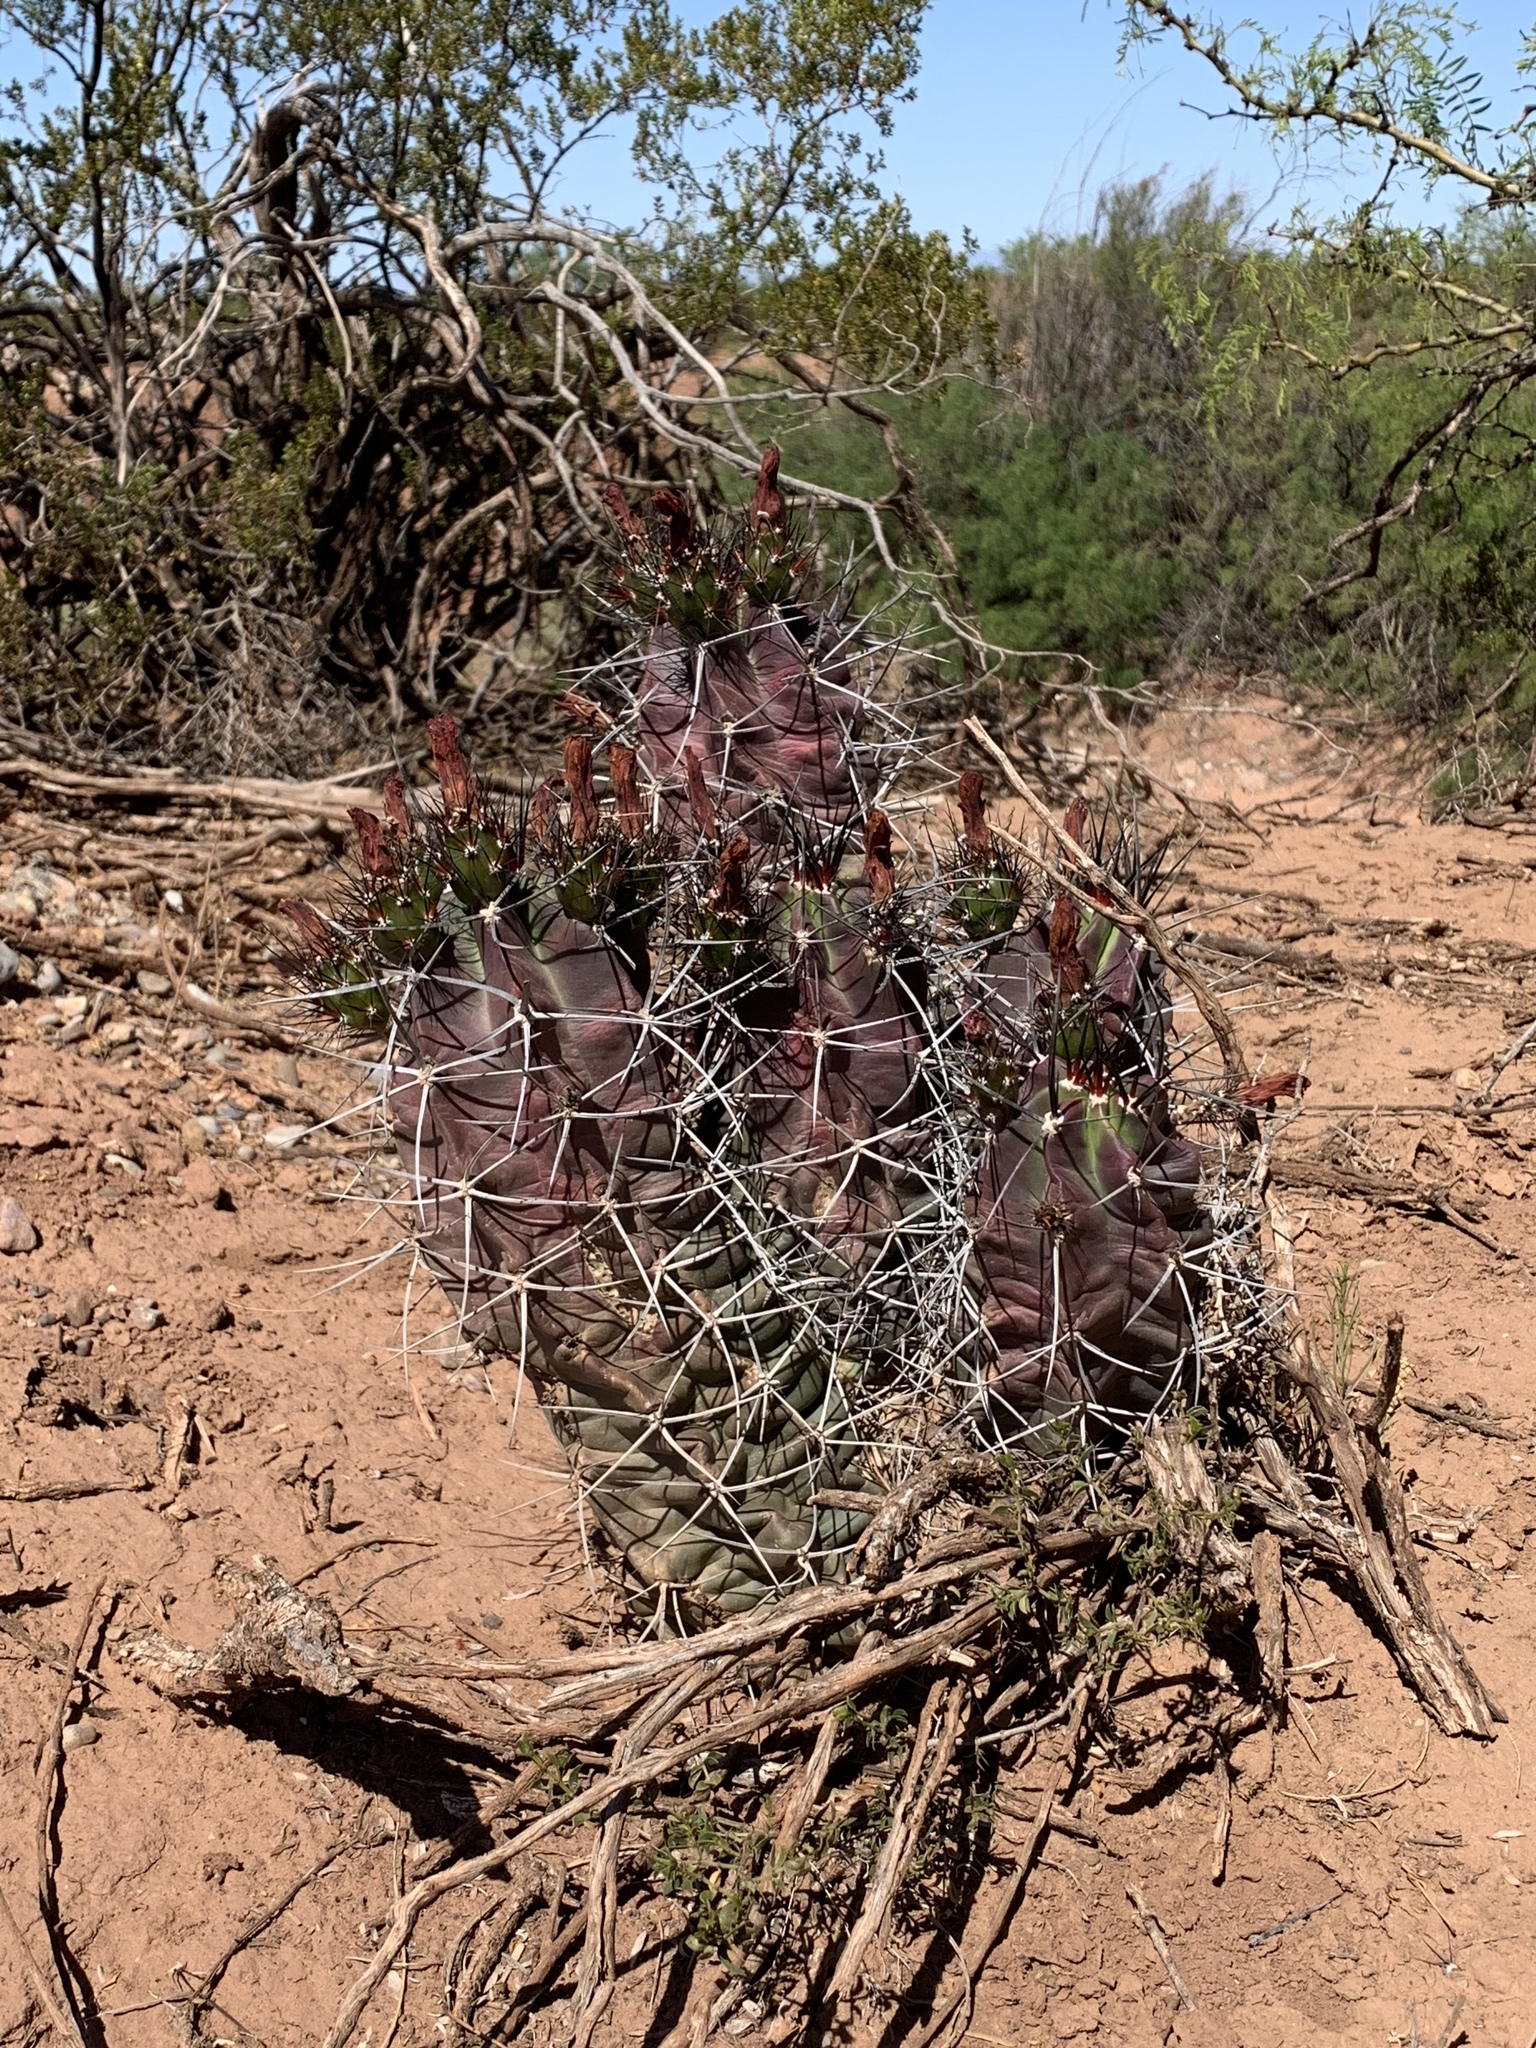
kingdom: Plantae
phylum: Tracheophyta
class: Magnoliopsida
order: Caryophyllales
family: Cactaceae
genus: Echinocereus
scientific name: Echinocereus triglochidiatus
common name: Claretcup hedgehog
